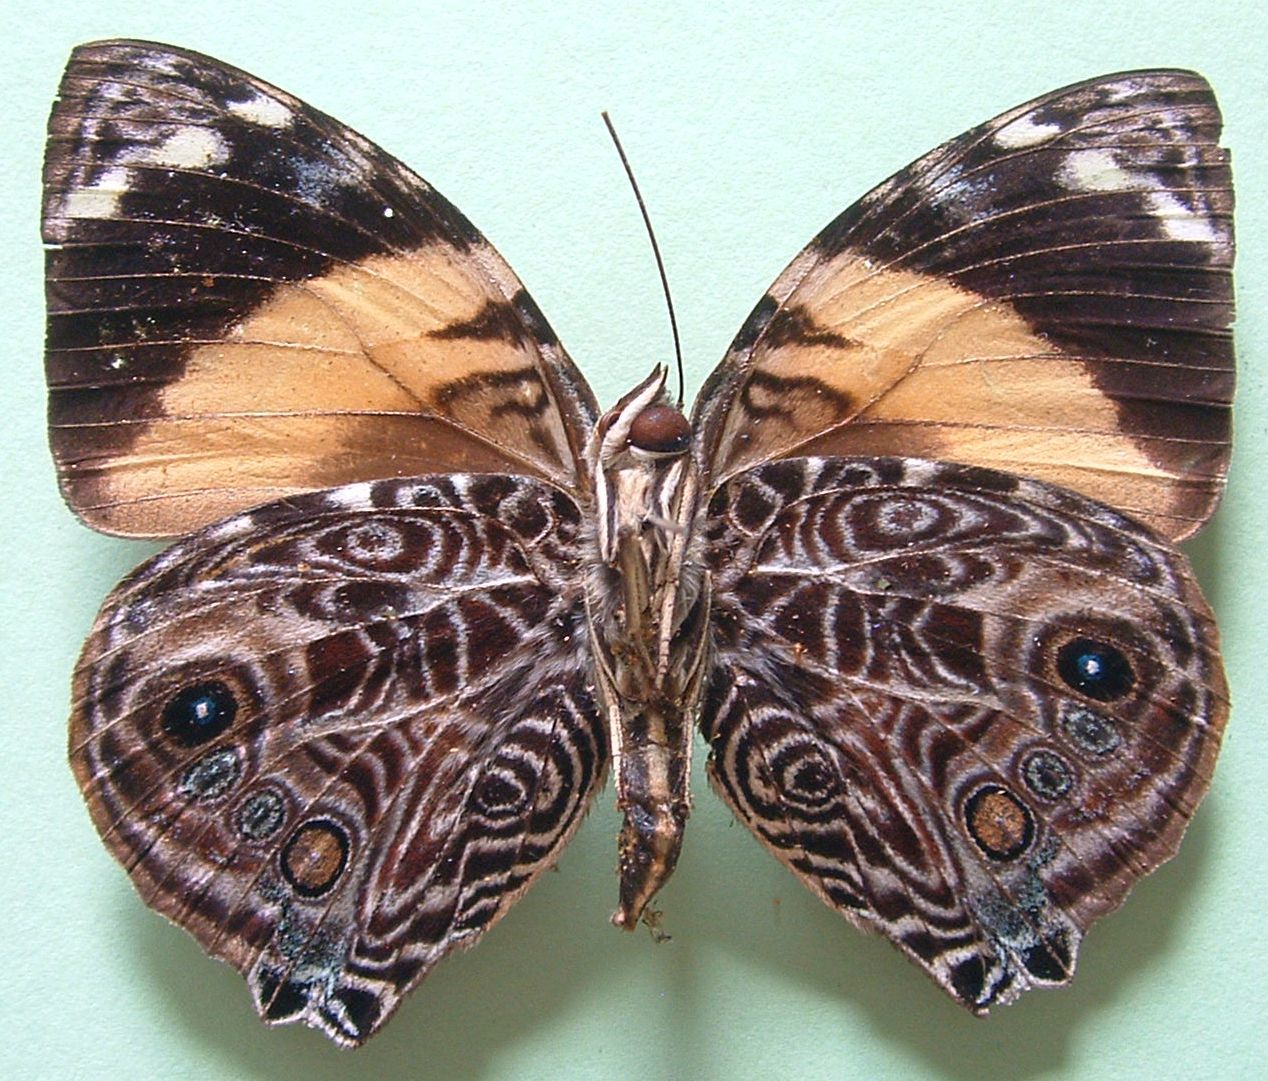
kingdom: Animalia
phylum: Arthropoda
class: Insecta
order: Lepidoptera
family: Nymphalidae
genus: Smyrna
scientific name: Smyrna blomfildia
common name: Blomfild's beauty
